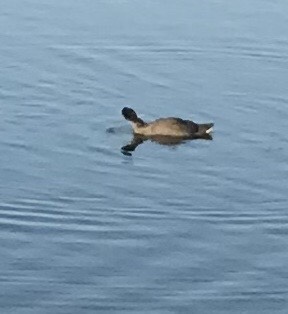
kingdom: Animalia
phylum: Chordata
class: Aves
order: Podicipediformes
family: Podicipedidae
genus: Podilymbus
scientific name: Podilymbus podiceps
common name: Pied-billed grebe
